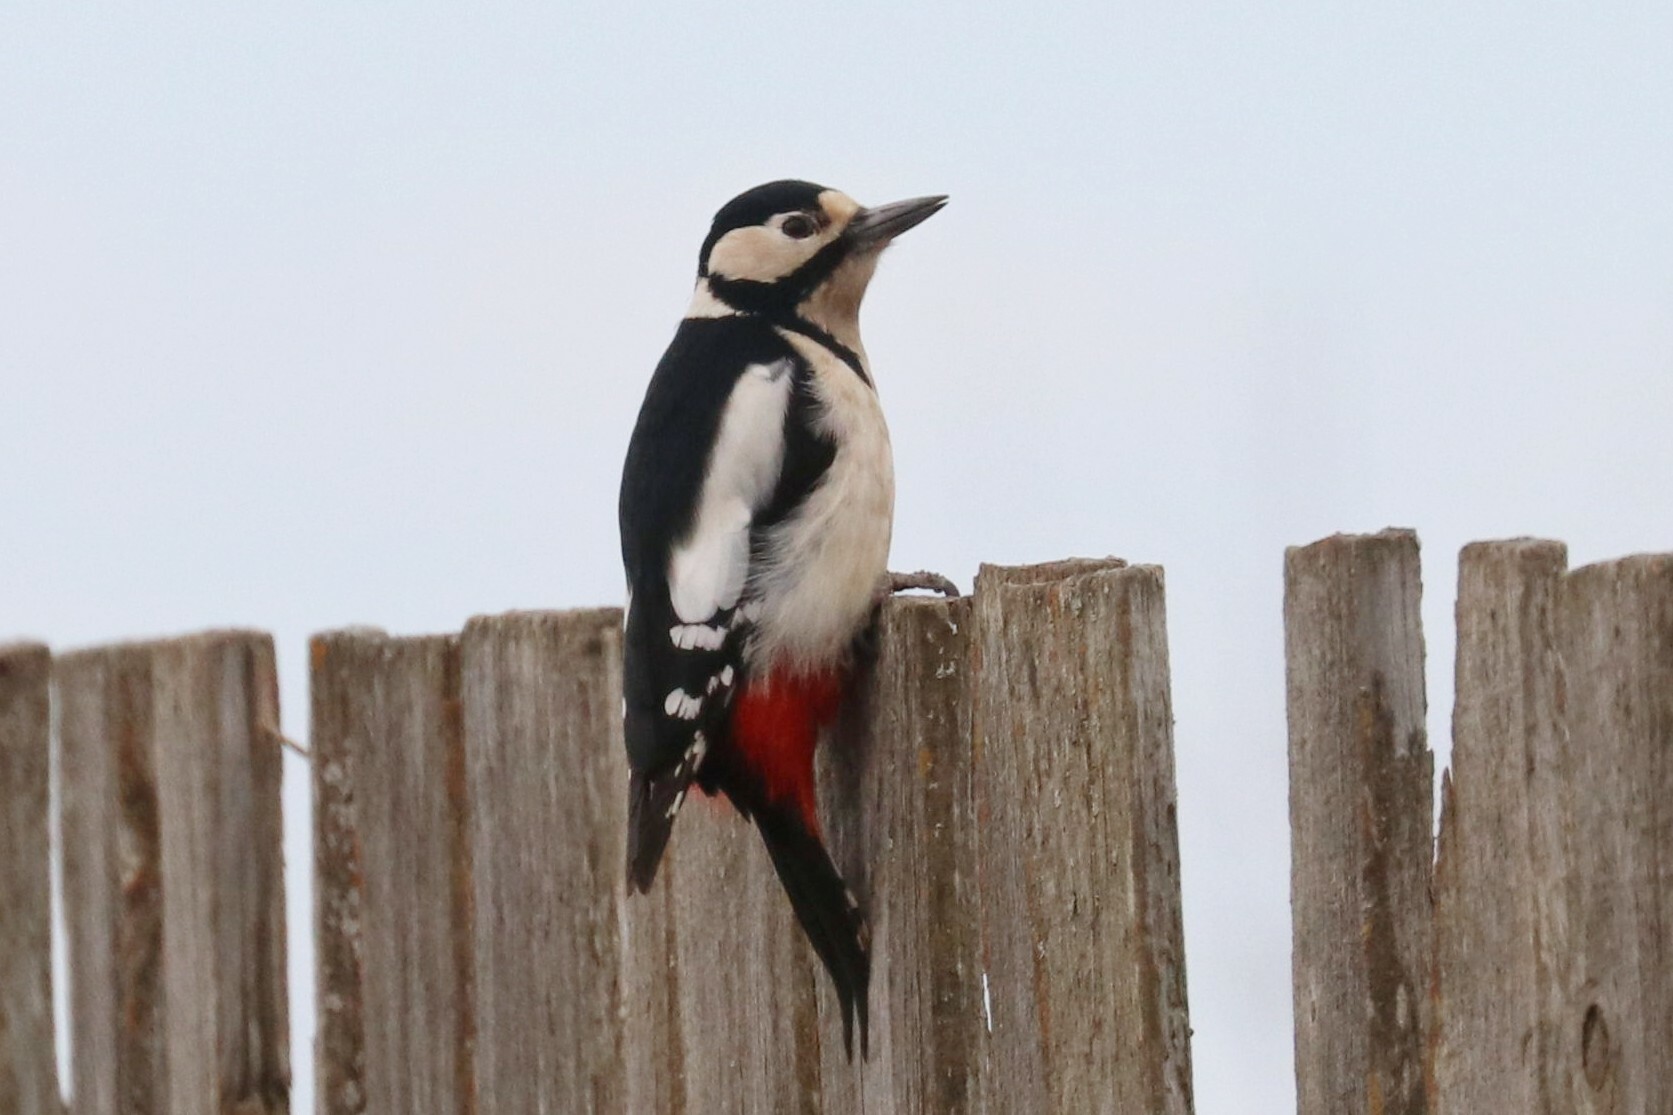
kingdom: Animalia
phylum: Chordata
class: Aves
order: Piciformes
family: Picidae
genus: Dendrocopos
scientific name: Dendrocopos major
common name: Great spotted woodpecker
